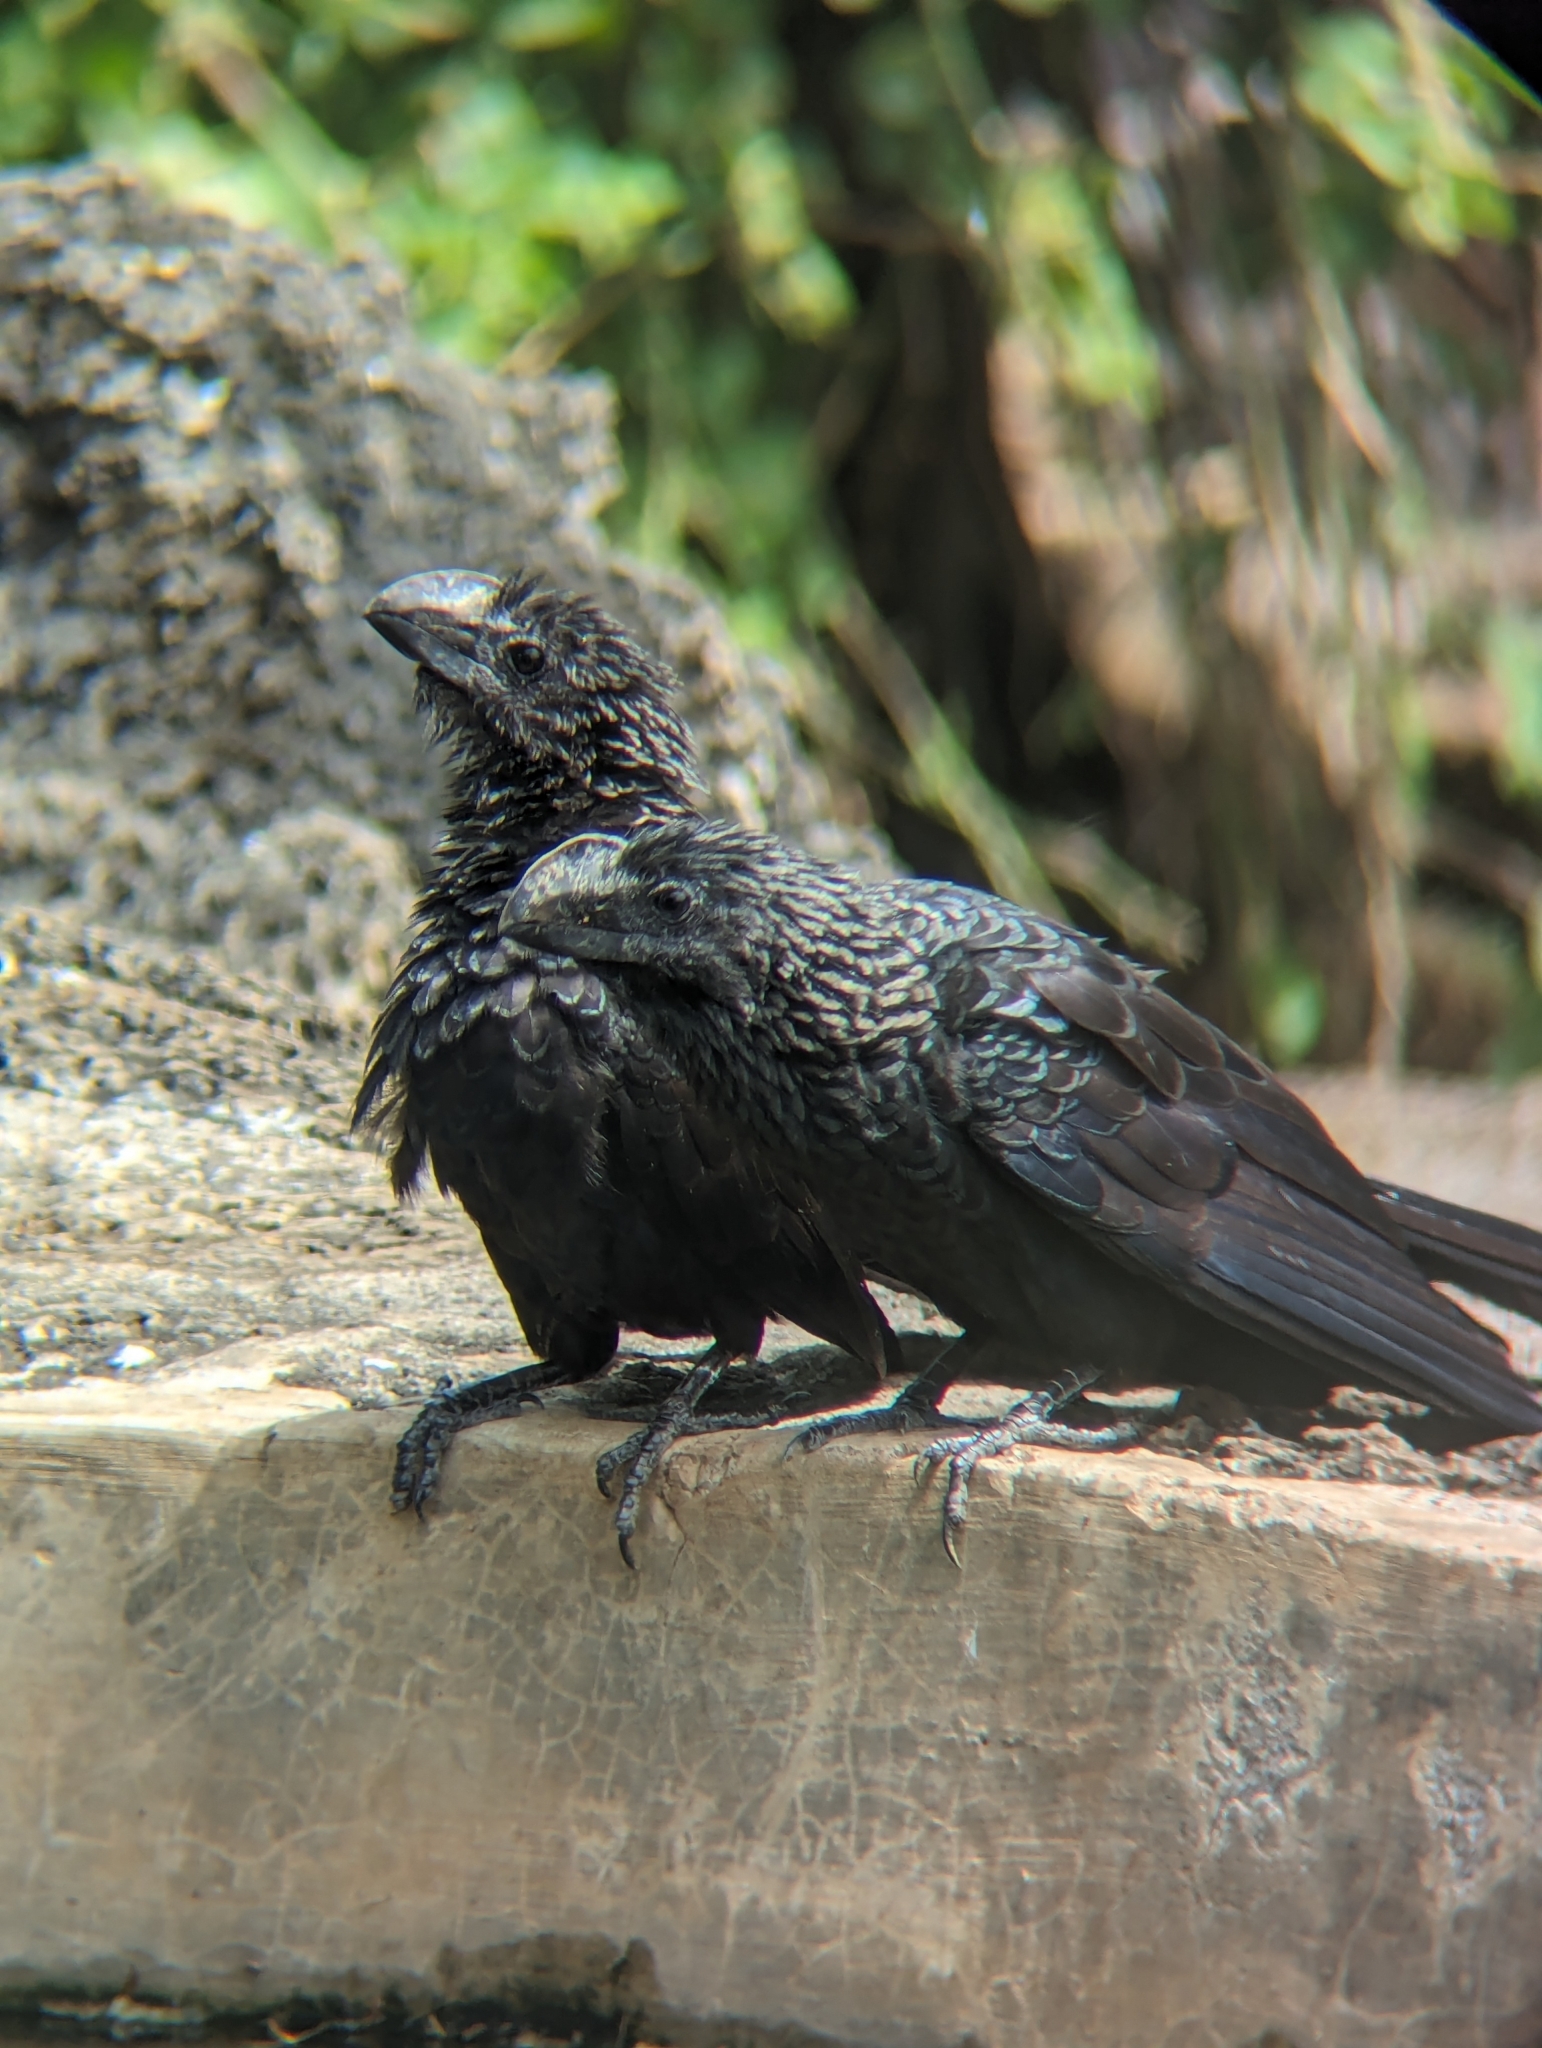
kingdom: Animalia
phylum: Chordata
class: Aves
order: Cuculiformes
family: Cuculidae
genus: Crotophaga
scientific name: Crotophaga ani
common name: Smooth-billed ani
